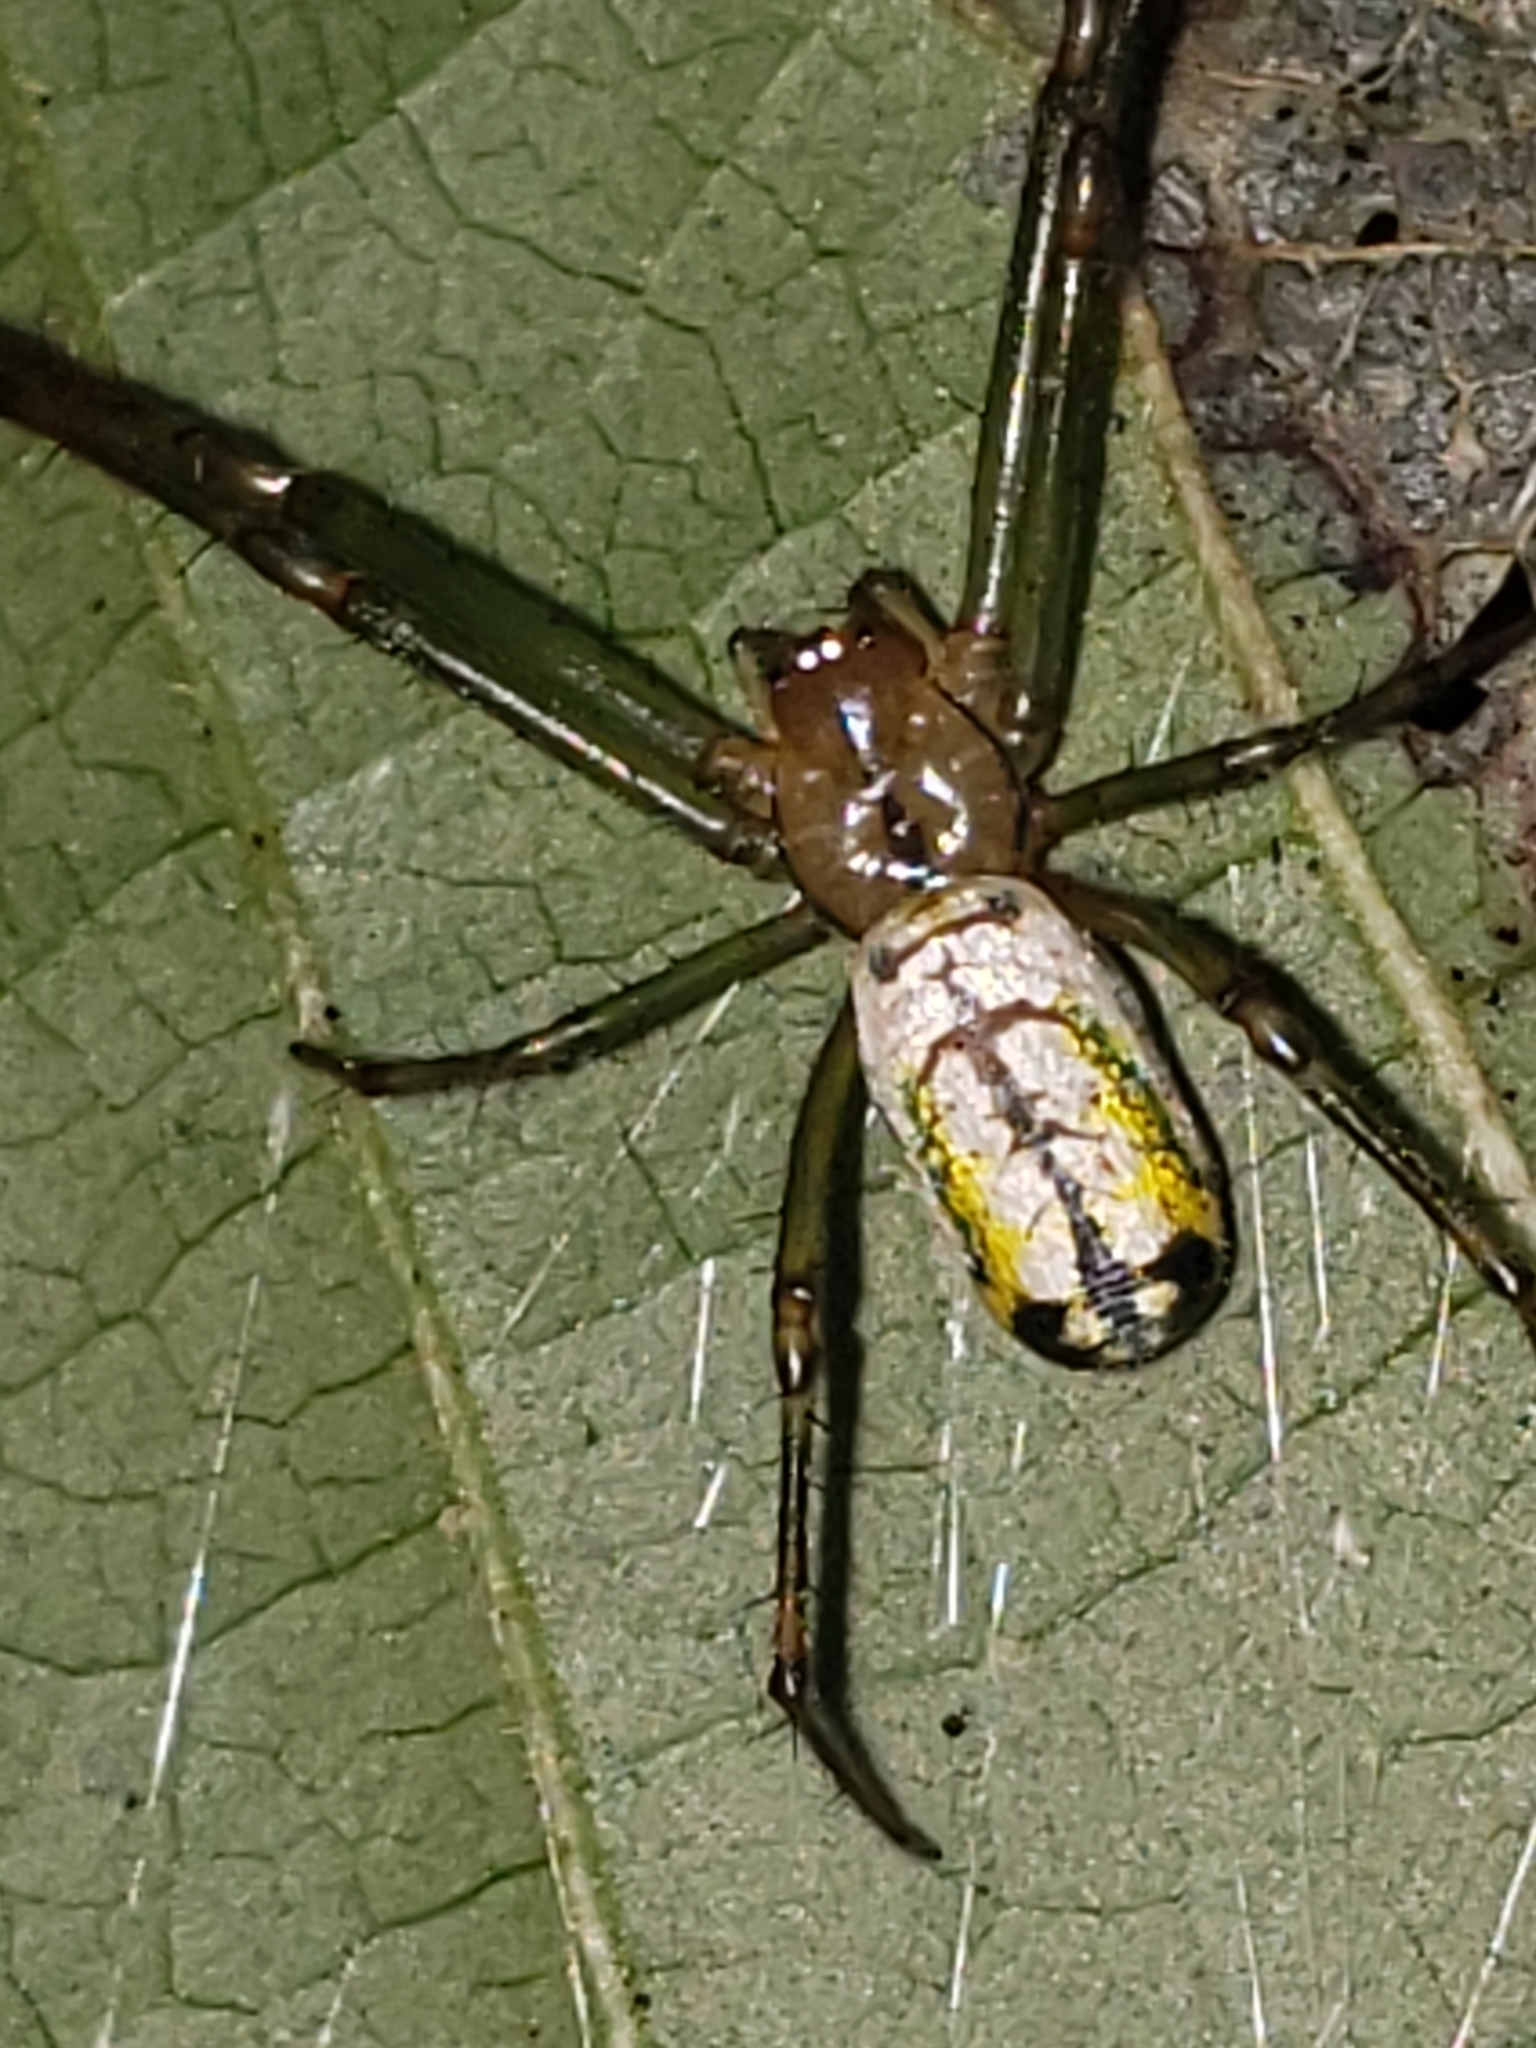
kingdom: Animalia
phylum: Arthropoda
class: Arachnida
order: Araneae
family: Tetragnathidae
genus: Leucauge
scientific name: Leucauge venusta
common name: Longjawed orb weavers
